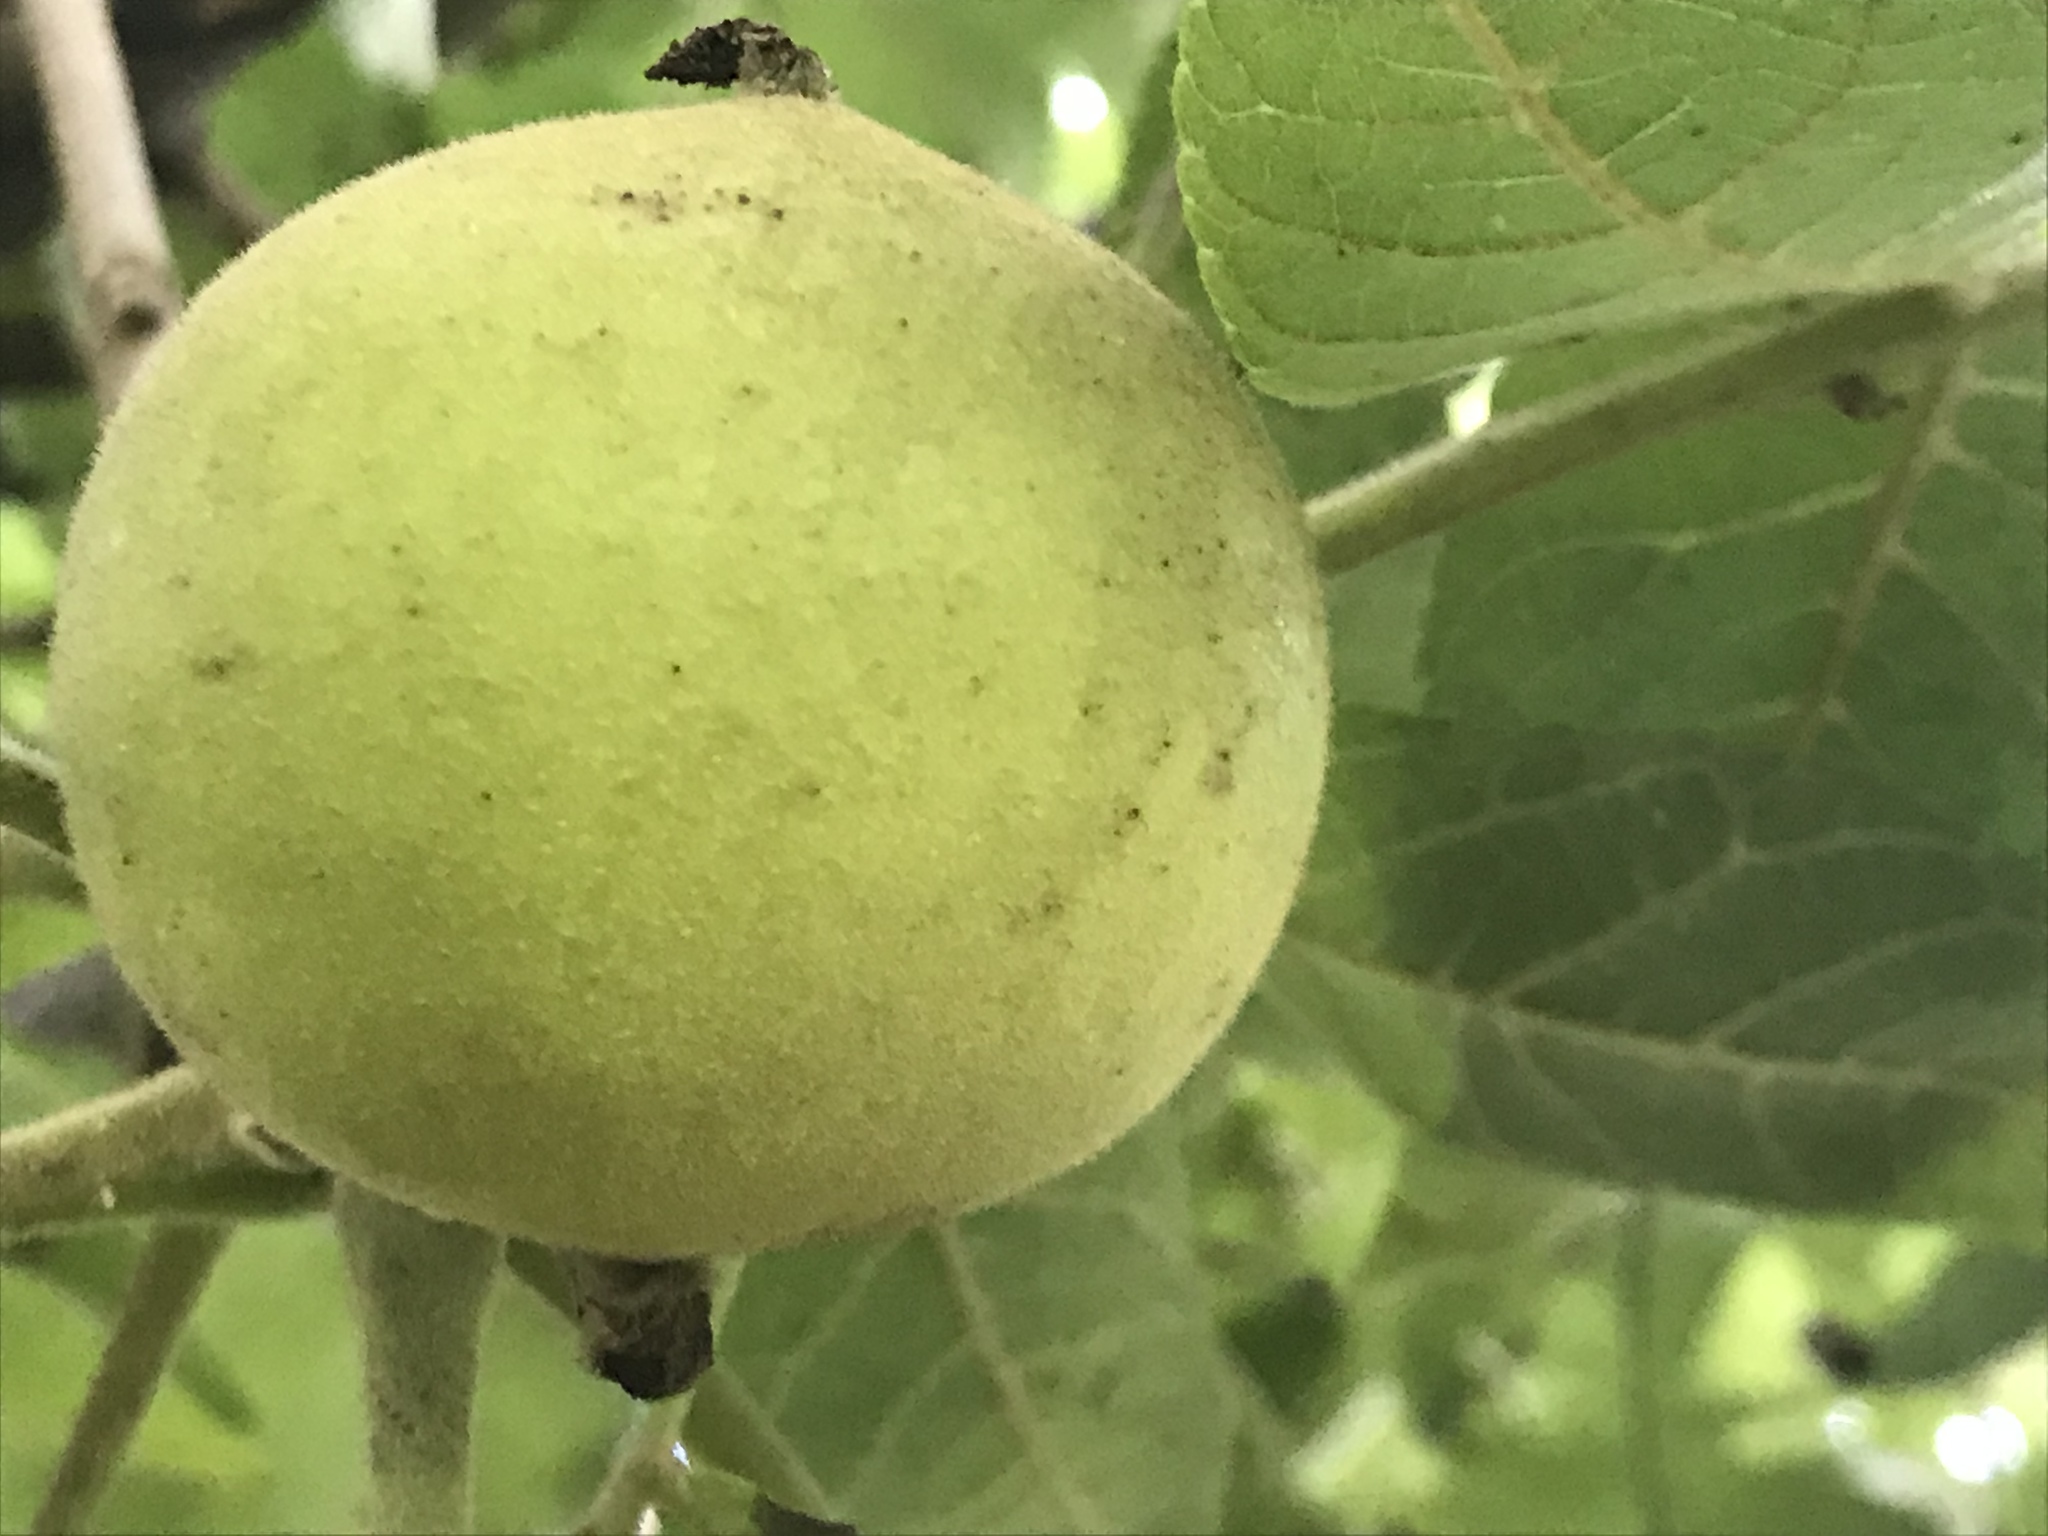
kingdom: Plantae
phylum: Tracheophyta
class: Magnoliopsida
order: Fagales
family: Juglandaceae
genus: Juglans
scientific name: Juglans mollis
